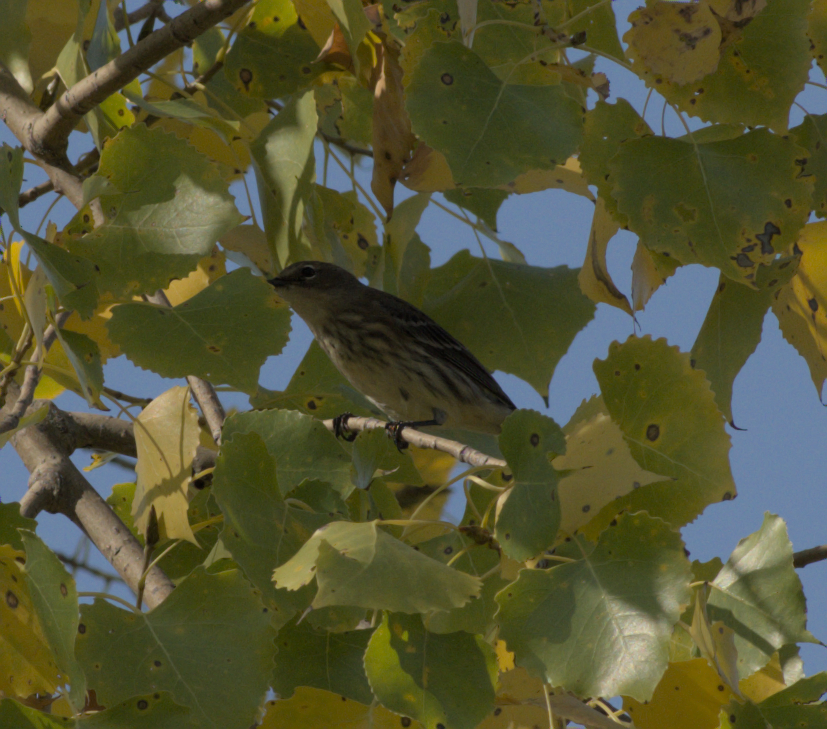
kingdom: Animalia
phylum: Chordata
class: Aves
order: Passeriformes
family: Parulidae
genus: Setophaga
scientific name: Setophaga coronata
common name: Myrtle warbler
